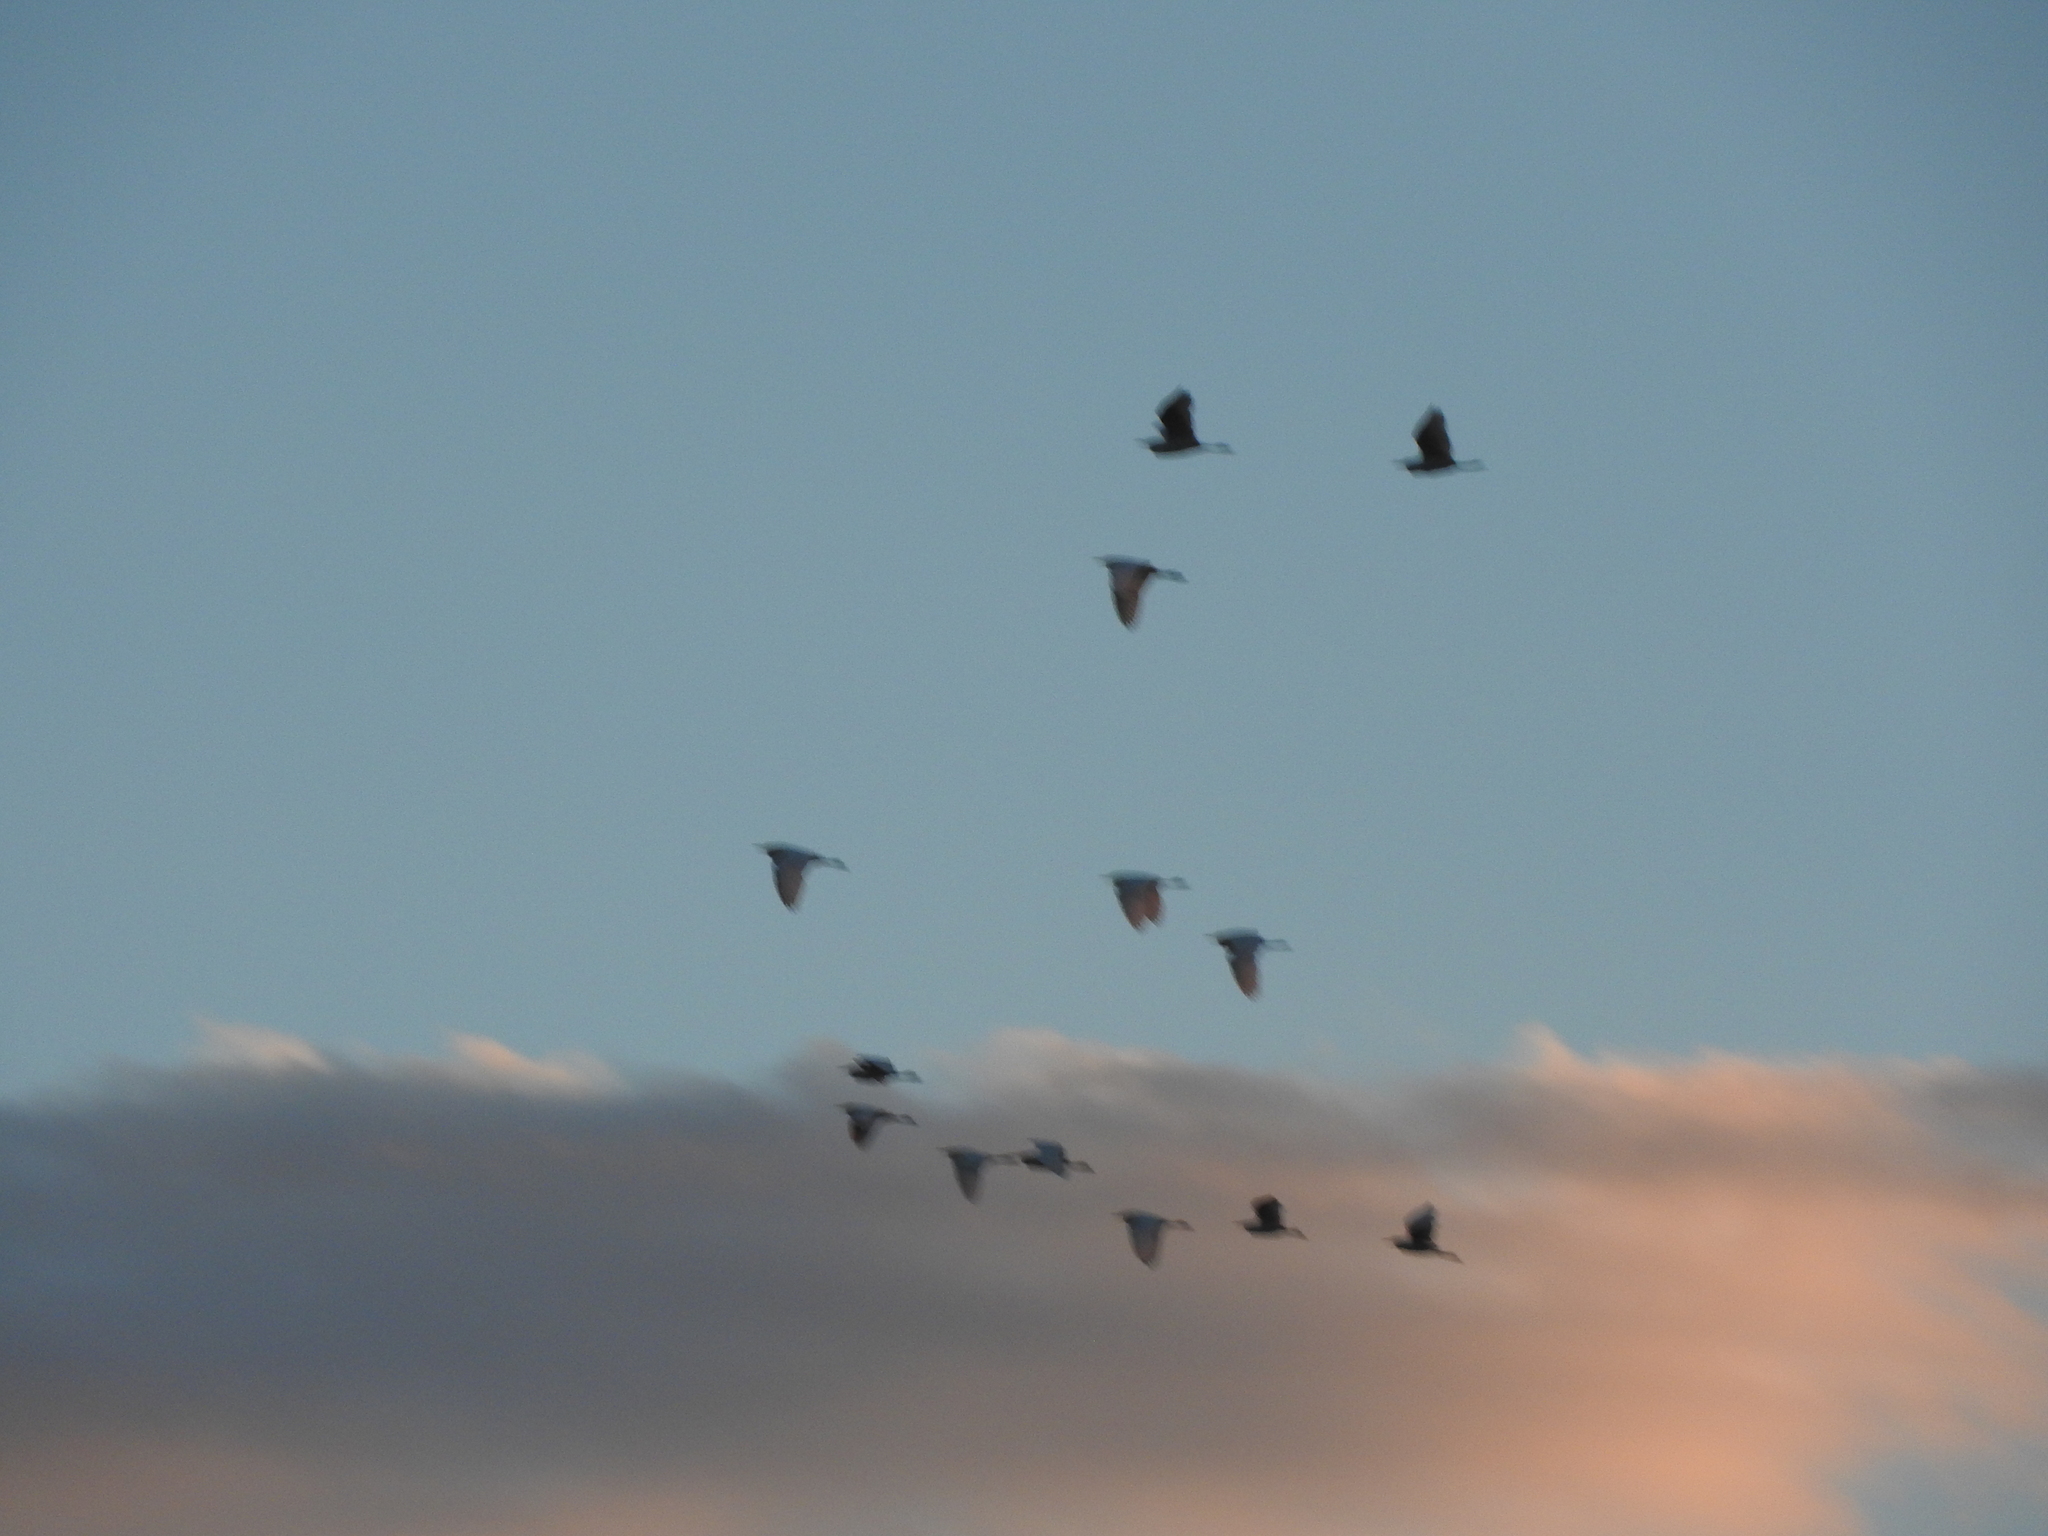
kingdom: Animalia
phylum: Chordata
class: Aves
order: Pelecaniformes
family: Ardeidae
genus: Bubulcus
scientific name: Bubulcus ibis
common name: Cattle egret
